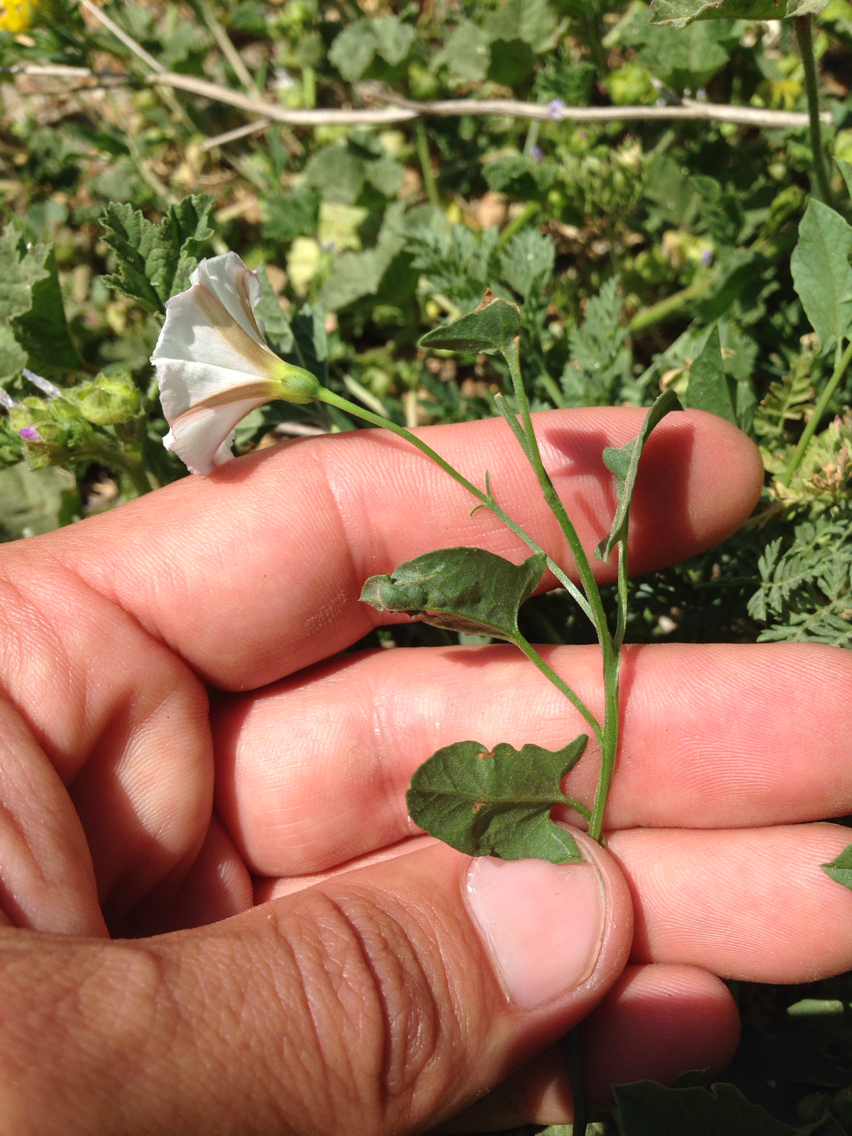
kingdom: Plantae
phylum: Tracheophyta
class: Magnoliopsida
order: Solanales
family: Convolvulaceae
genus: Convolvulus
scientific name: Convolvulus arvensis
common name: Field bindweed
